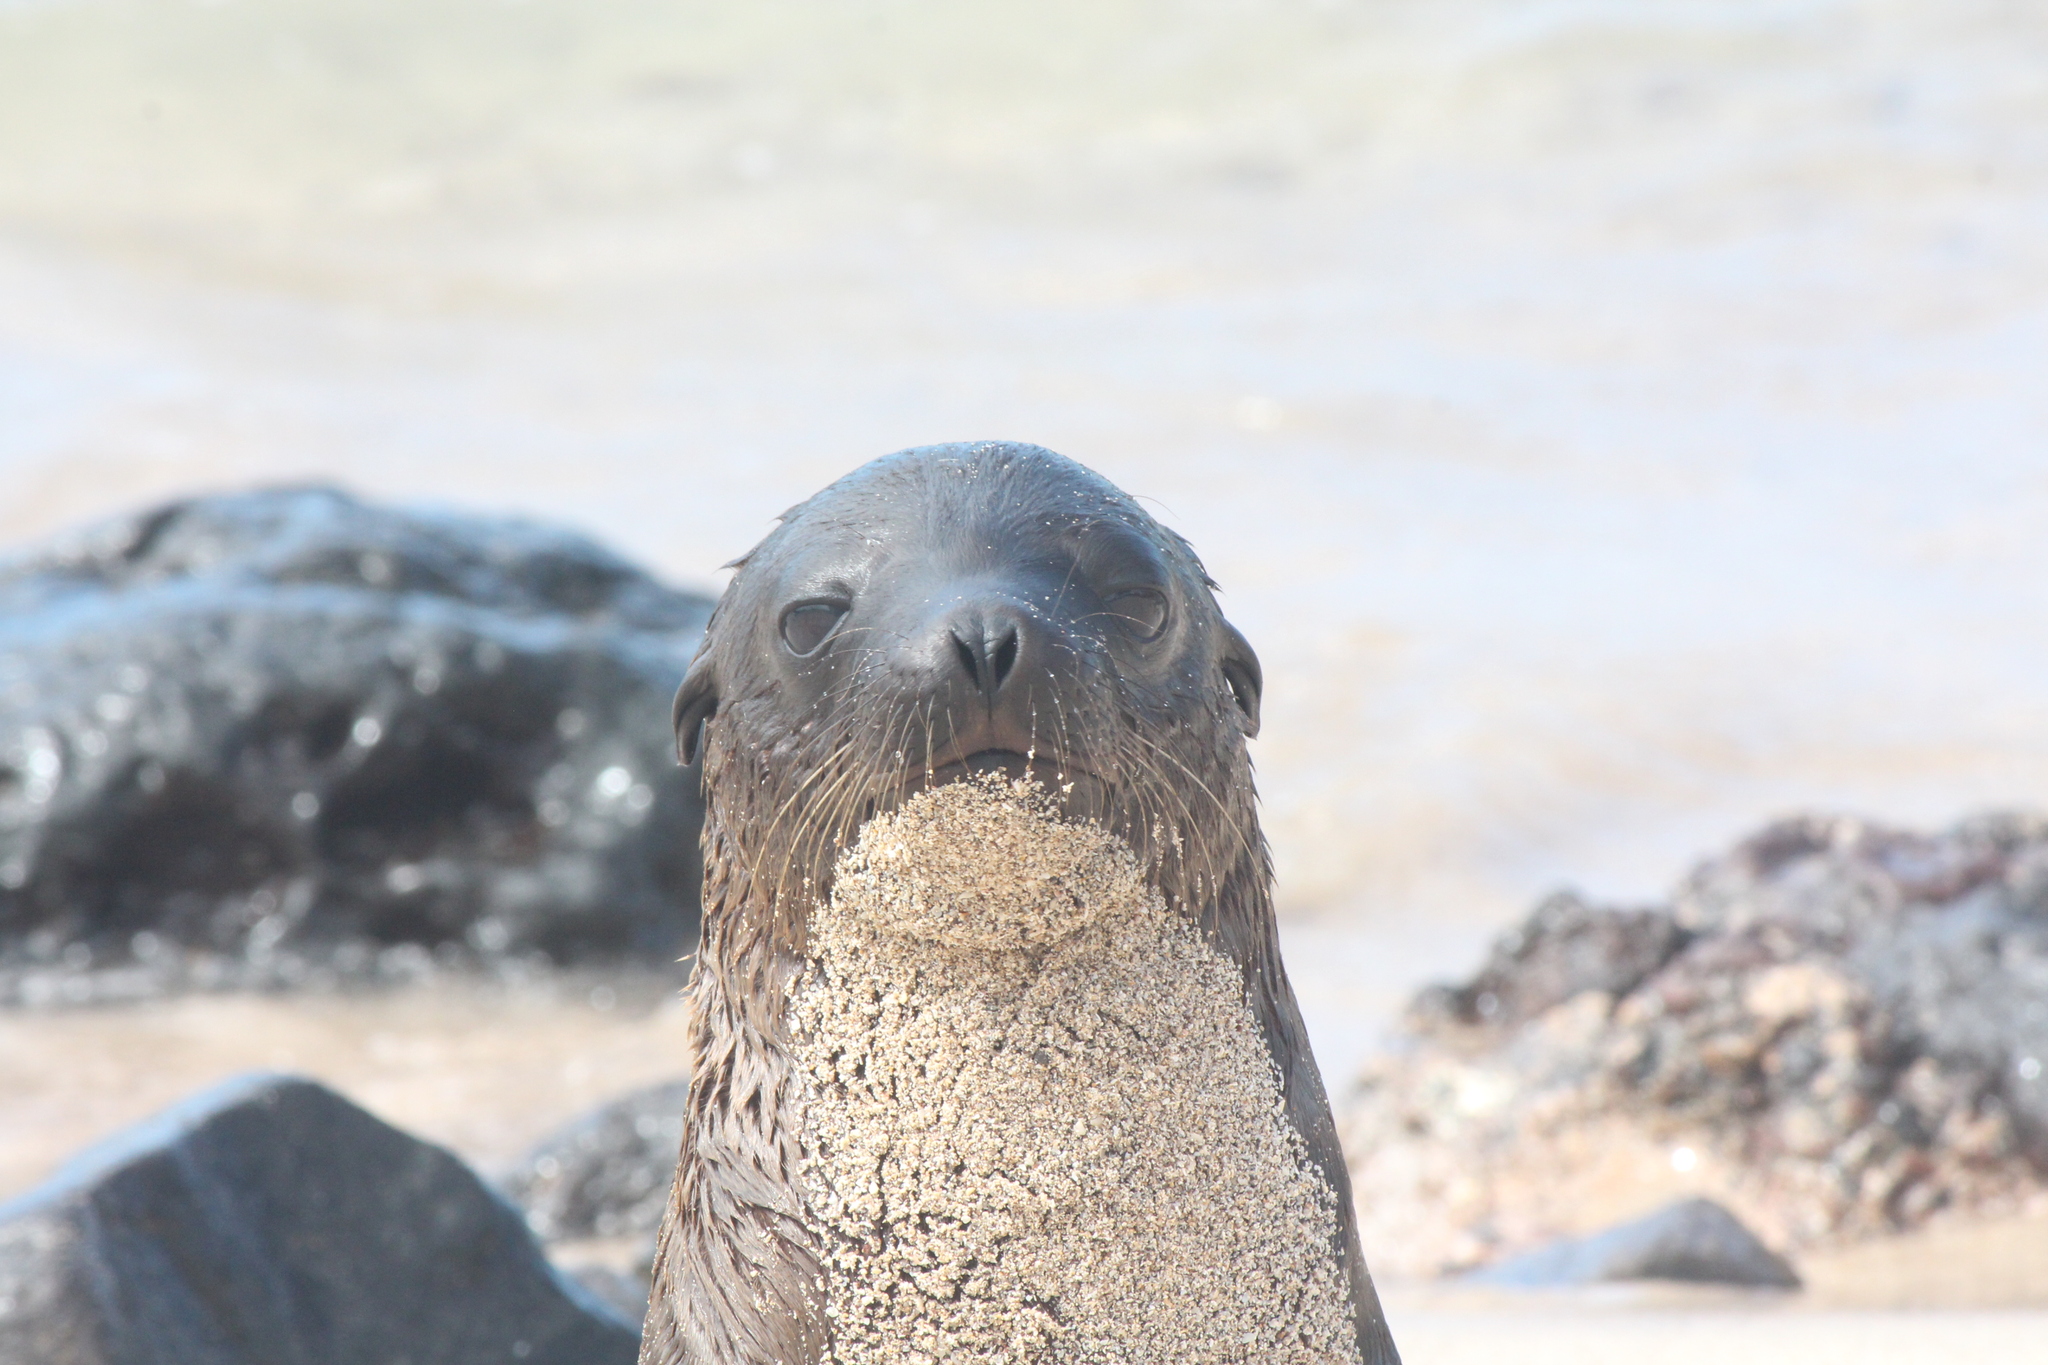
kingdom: Animalia
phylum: Chordata
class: Mammalia
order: Carnivora
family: Otariidae
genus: Zalophus
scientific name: Zalophus wollebaeki
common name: Galapagos sea lion
